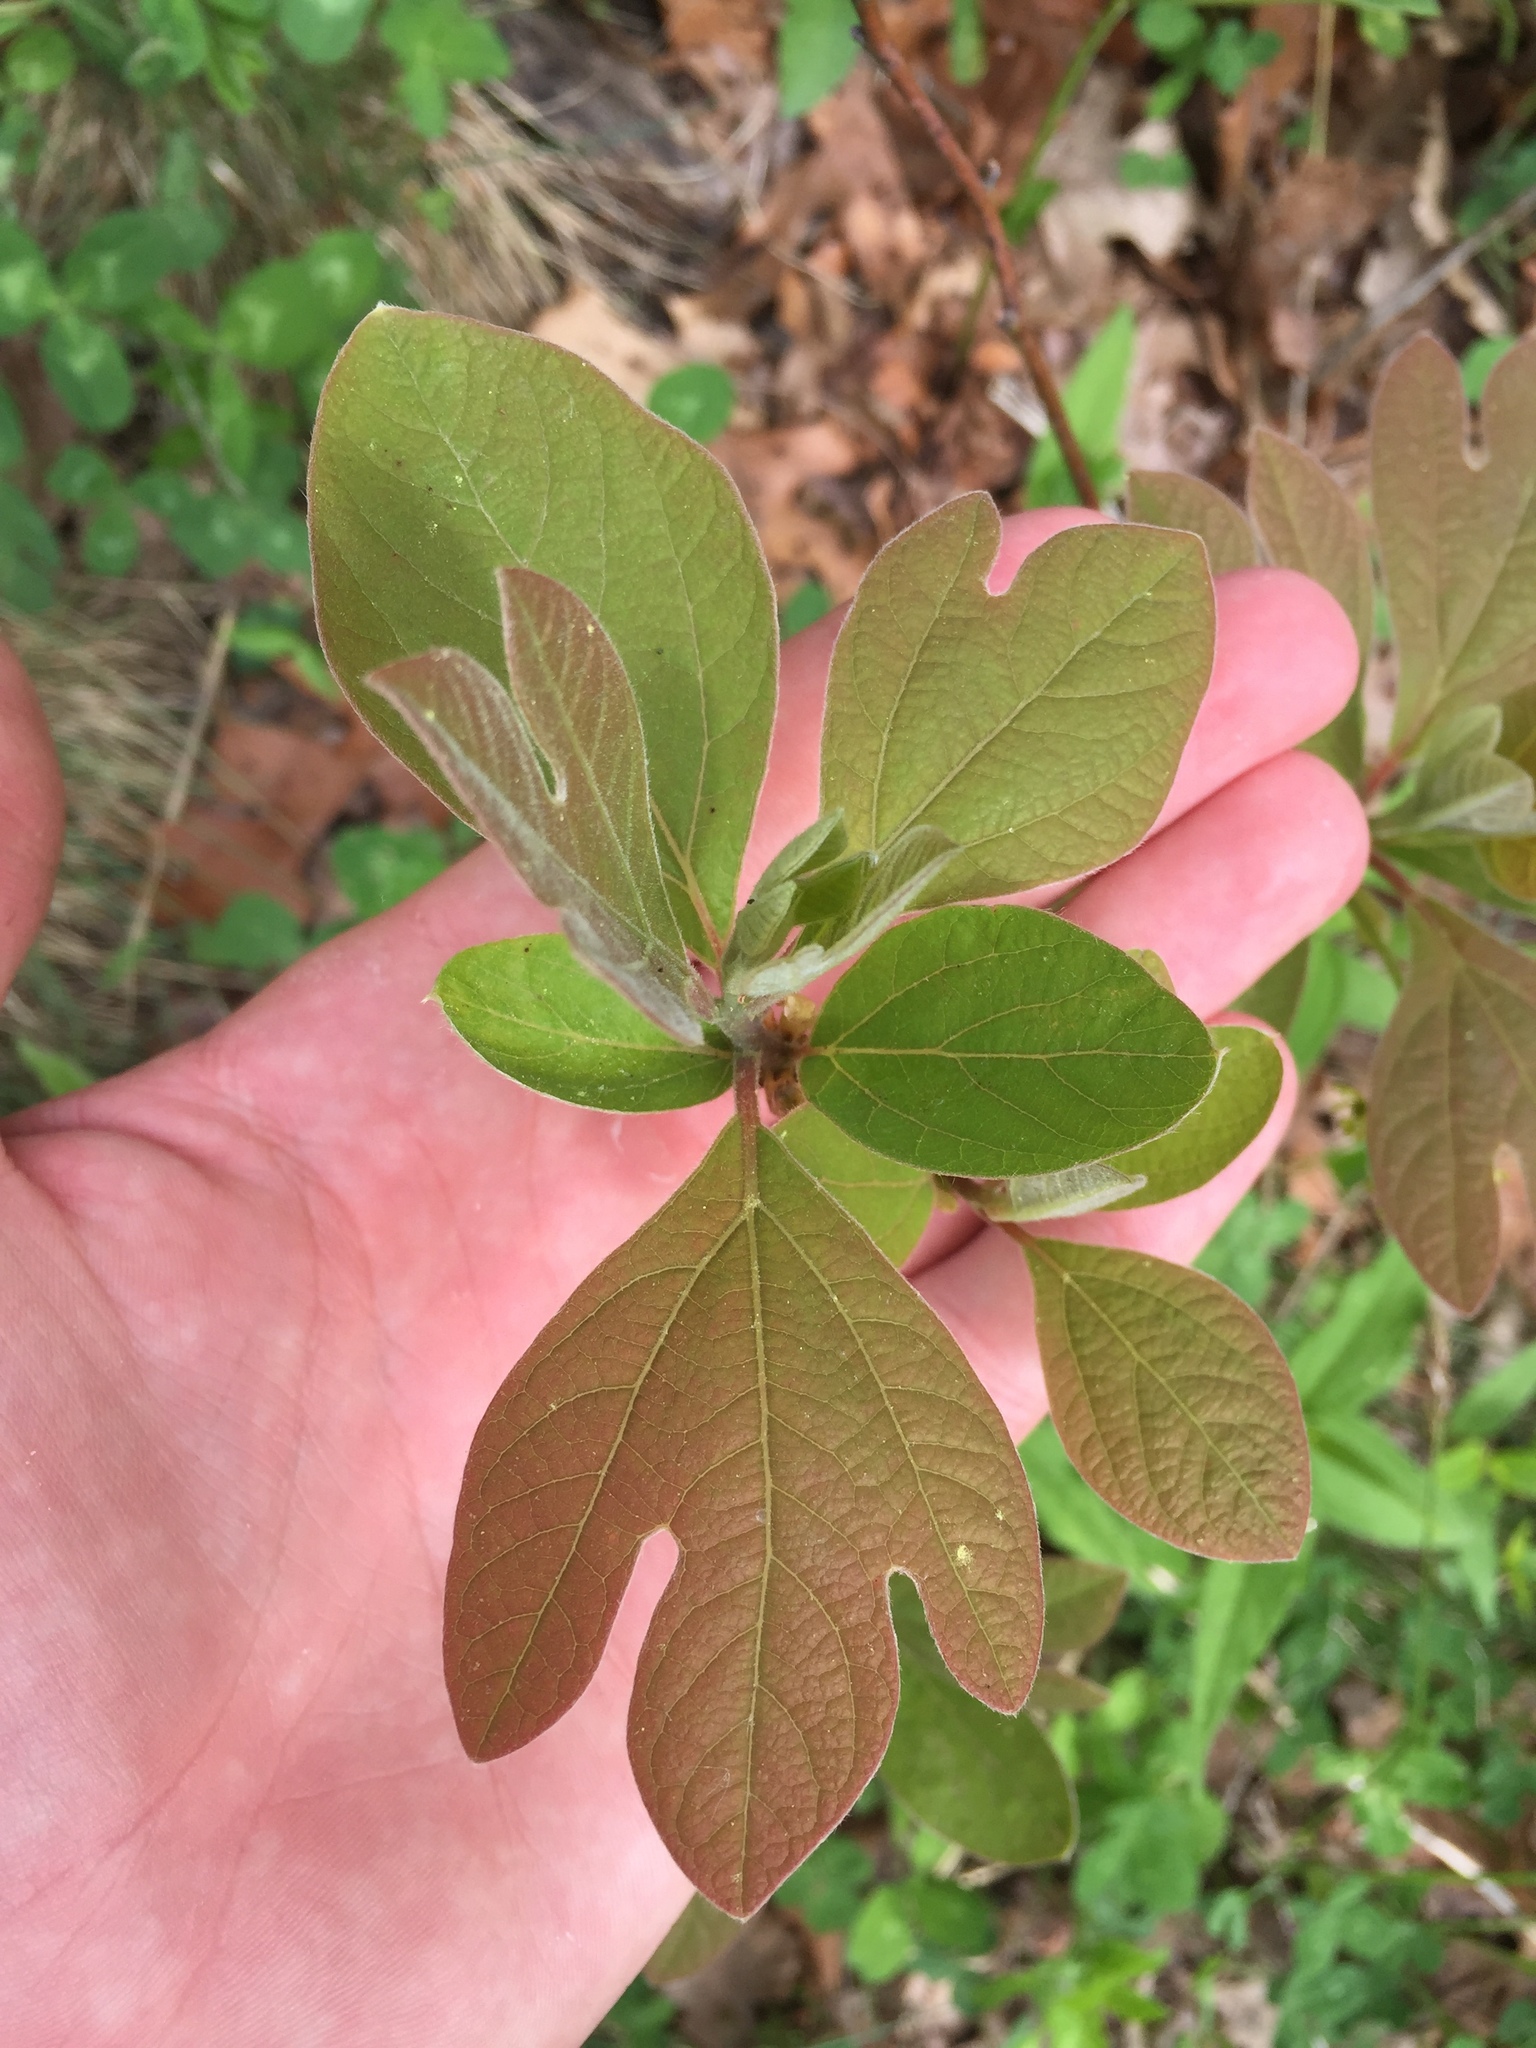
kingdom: Plantae
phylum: Tracheophyta
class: Magnoliopsida
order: Laurales
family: Lauraceae
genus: Sassafras
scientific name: Sassafras albidum
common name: Sassafras
